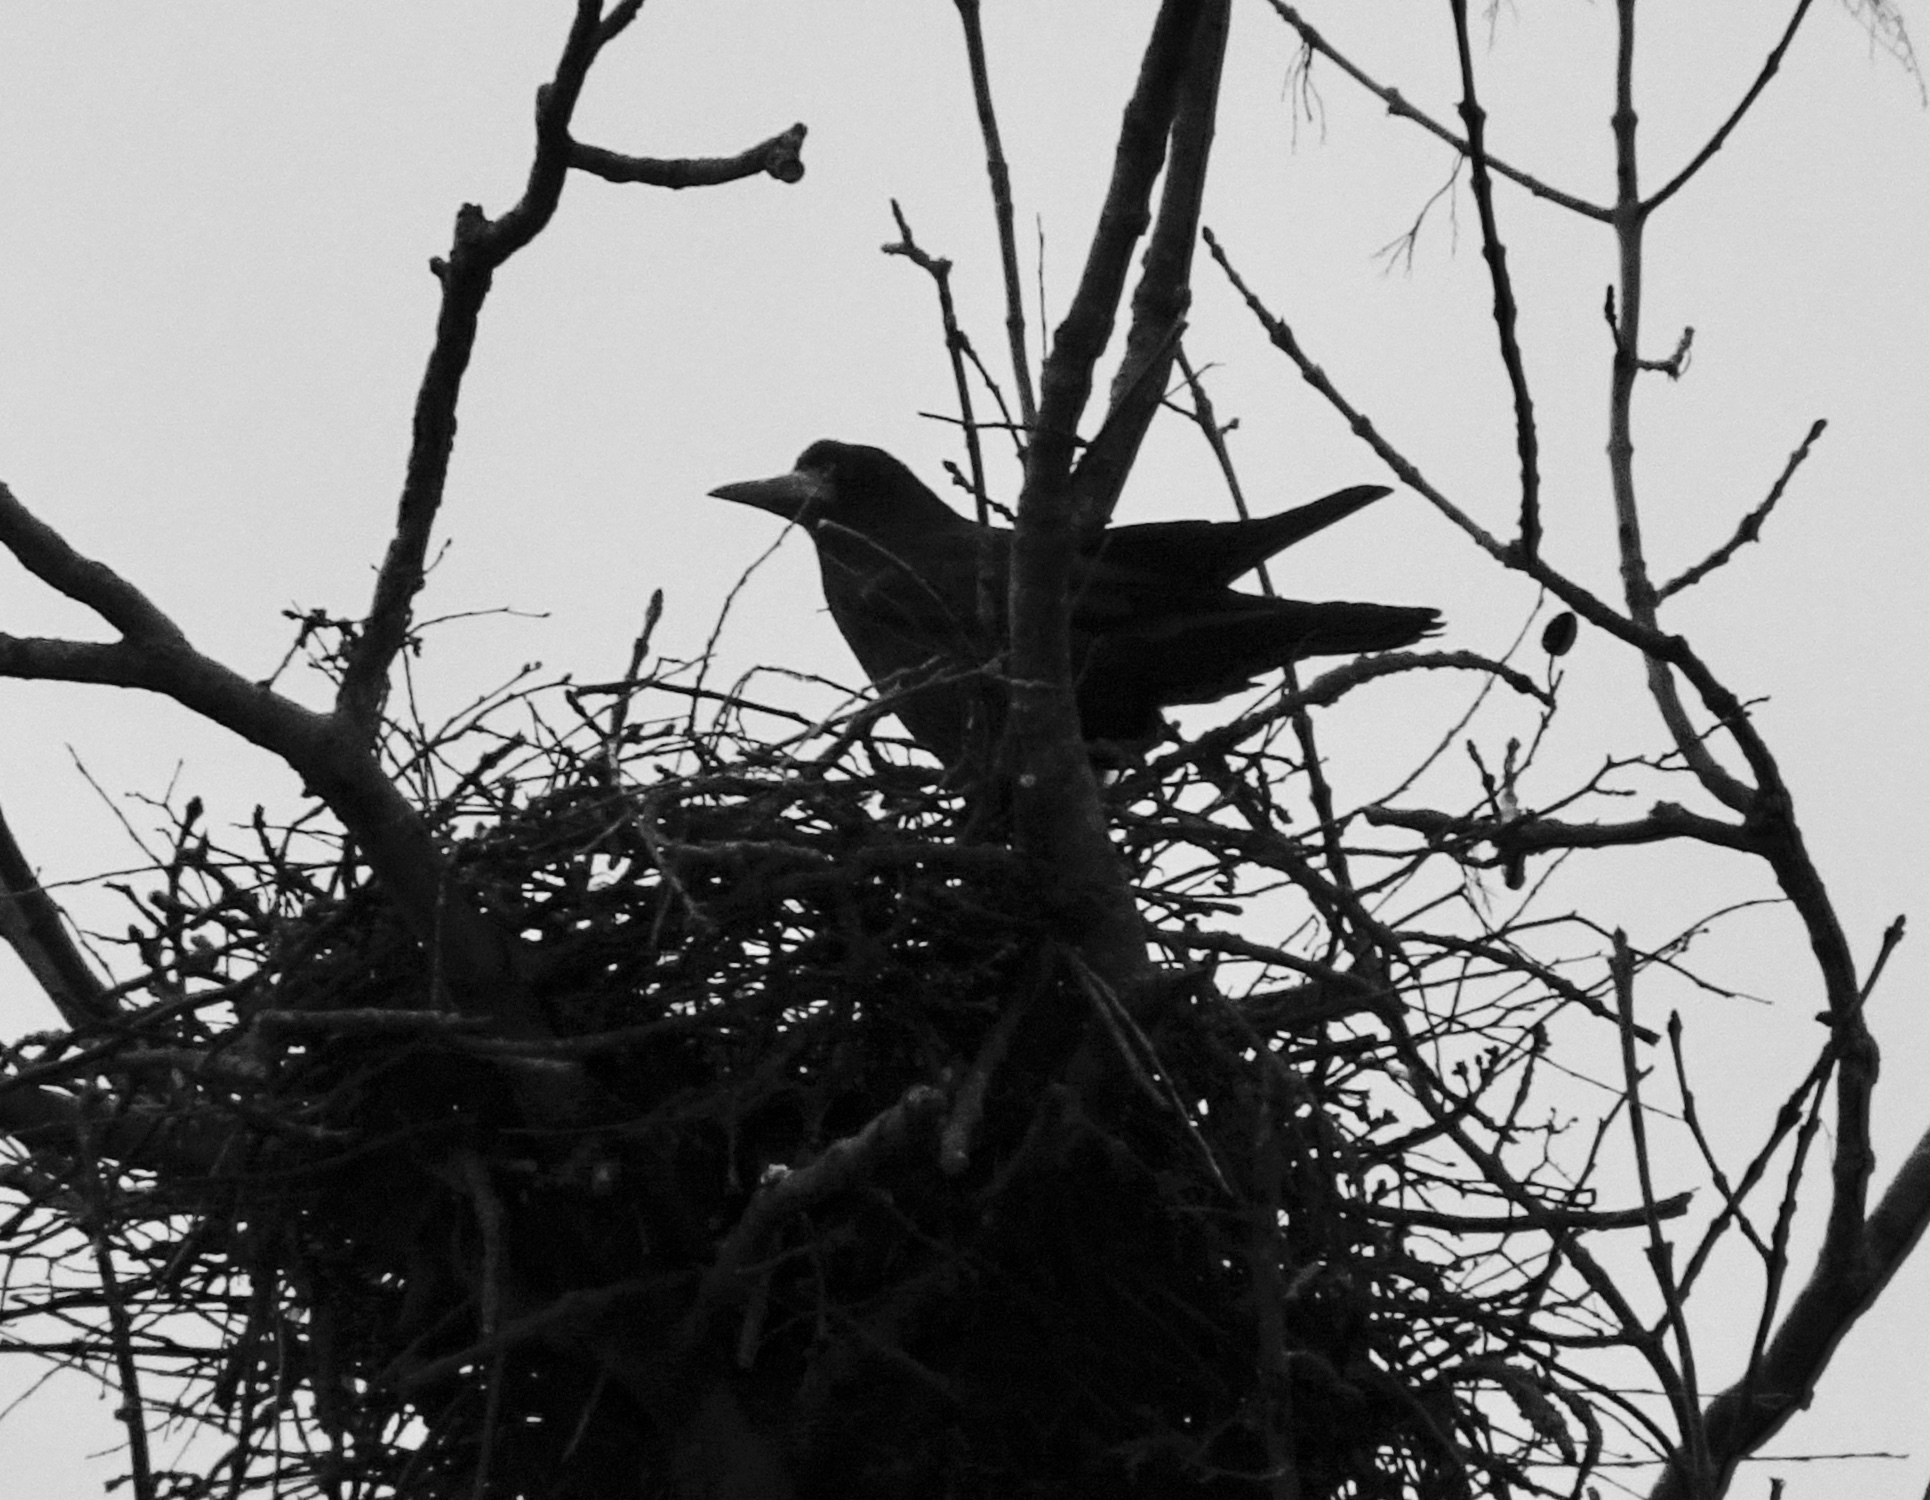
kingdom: Animalia
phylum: Chordata
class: Aves
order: Passeriformes
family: Corvidae
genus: Corvus
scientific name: Corvus frugilegus
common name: Rook
